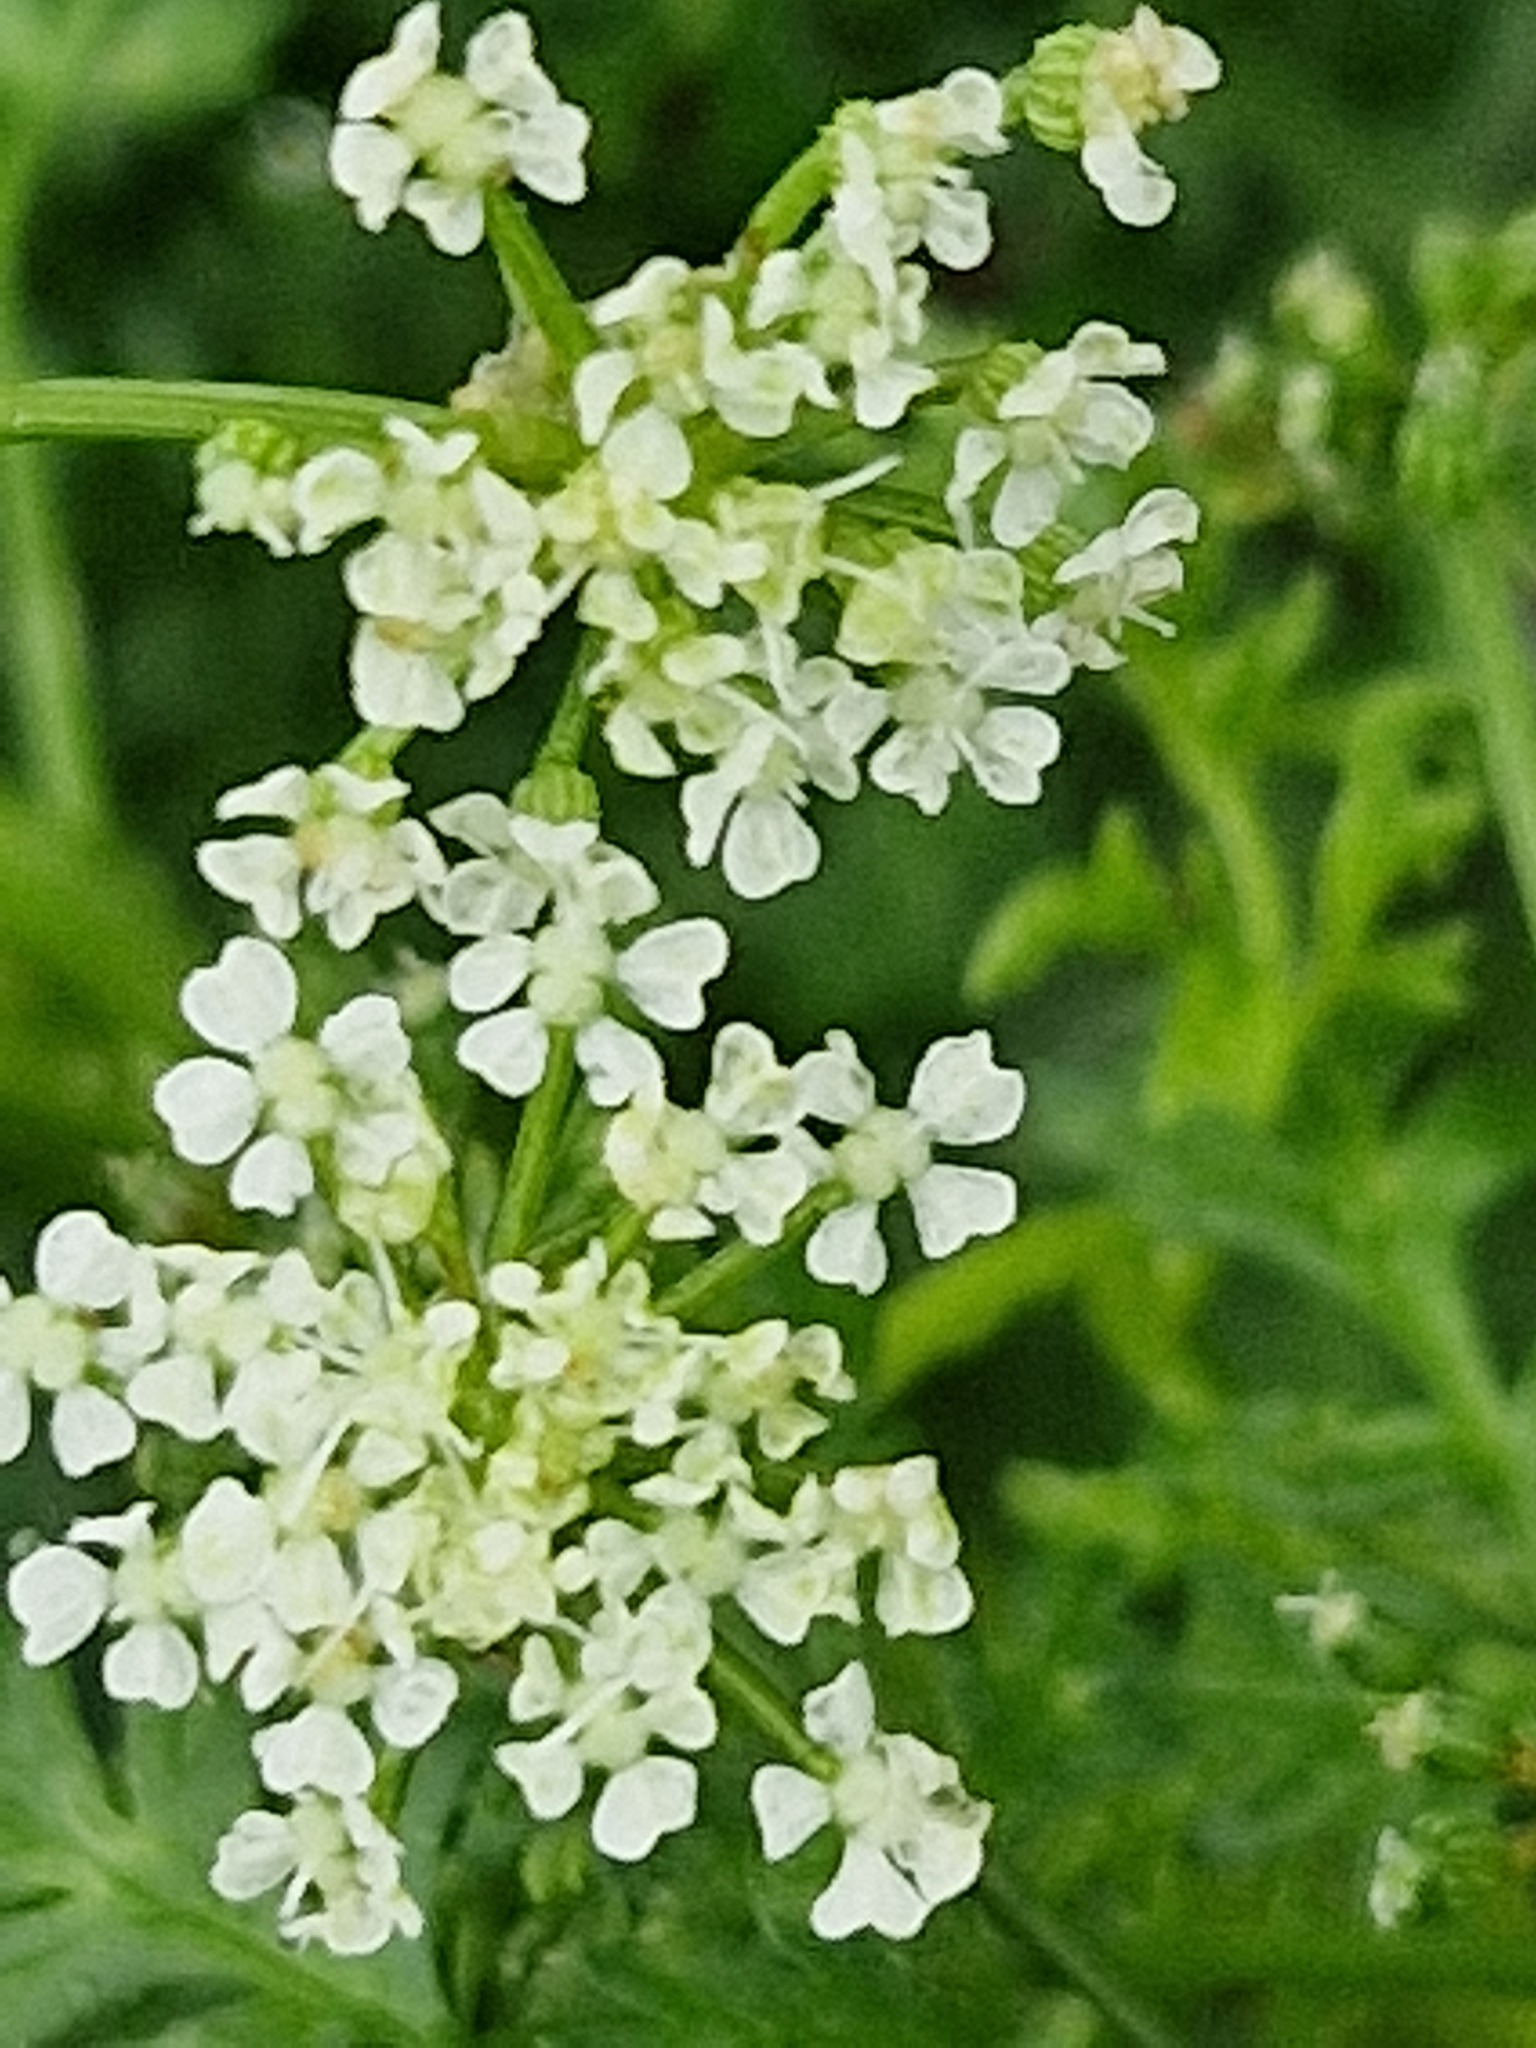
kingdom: Plantae
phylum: Tracheophyta
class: Magnoliopsida
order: Apiales
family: Apiaceae
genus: Conium
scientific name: Conium maculatum
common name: Hemlock
